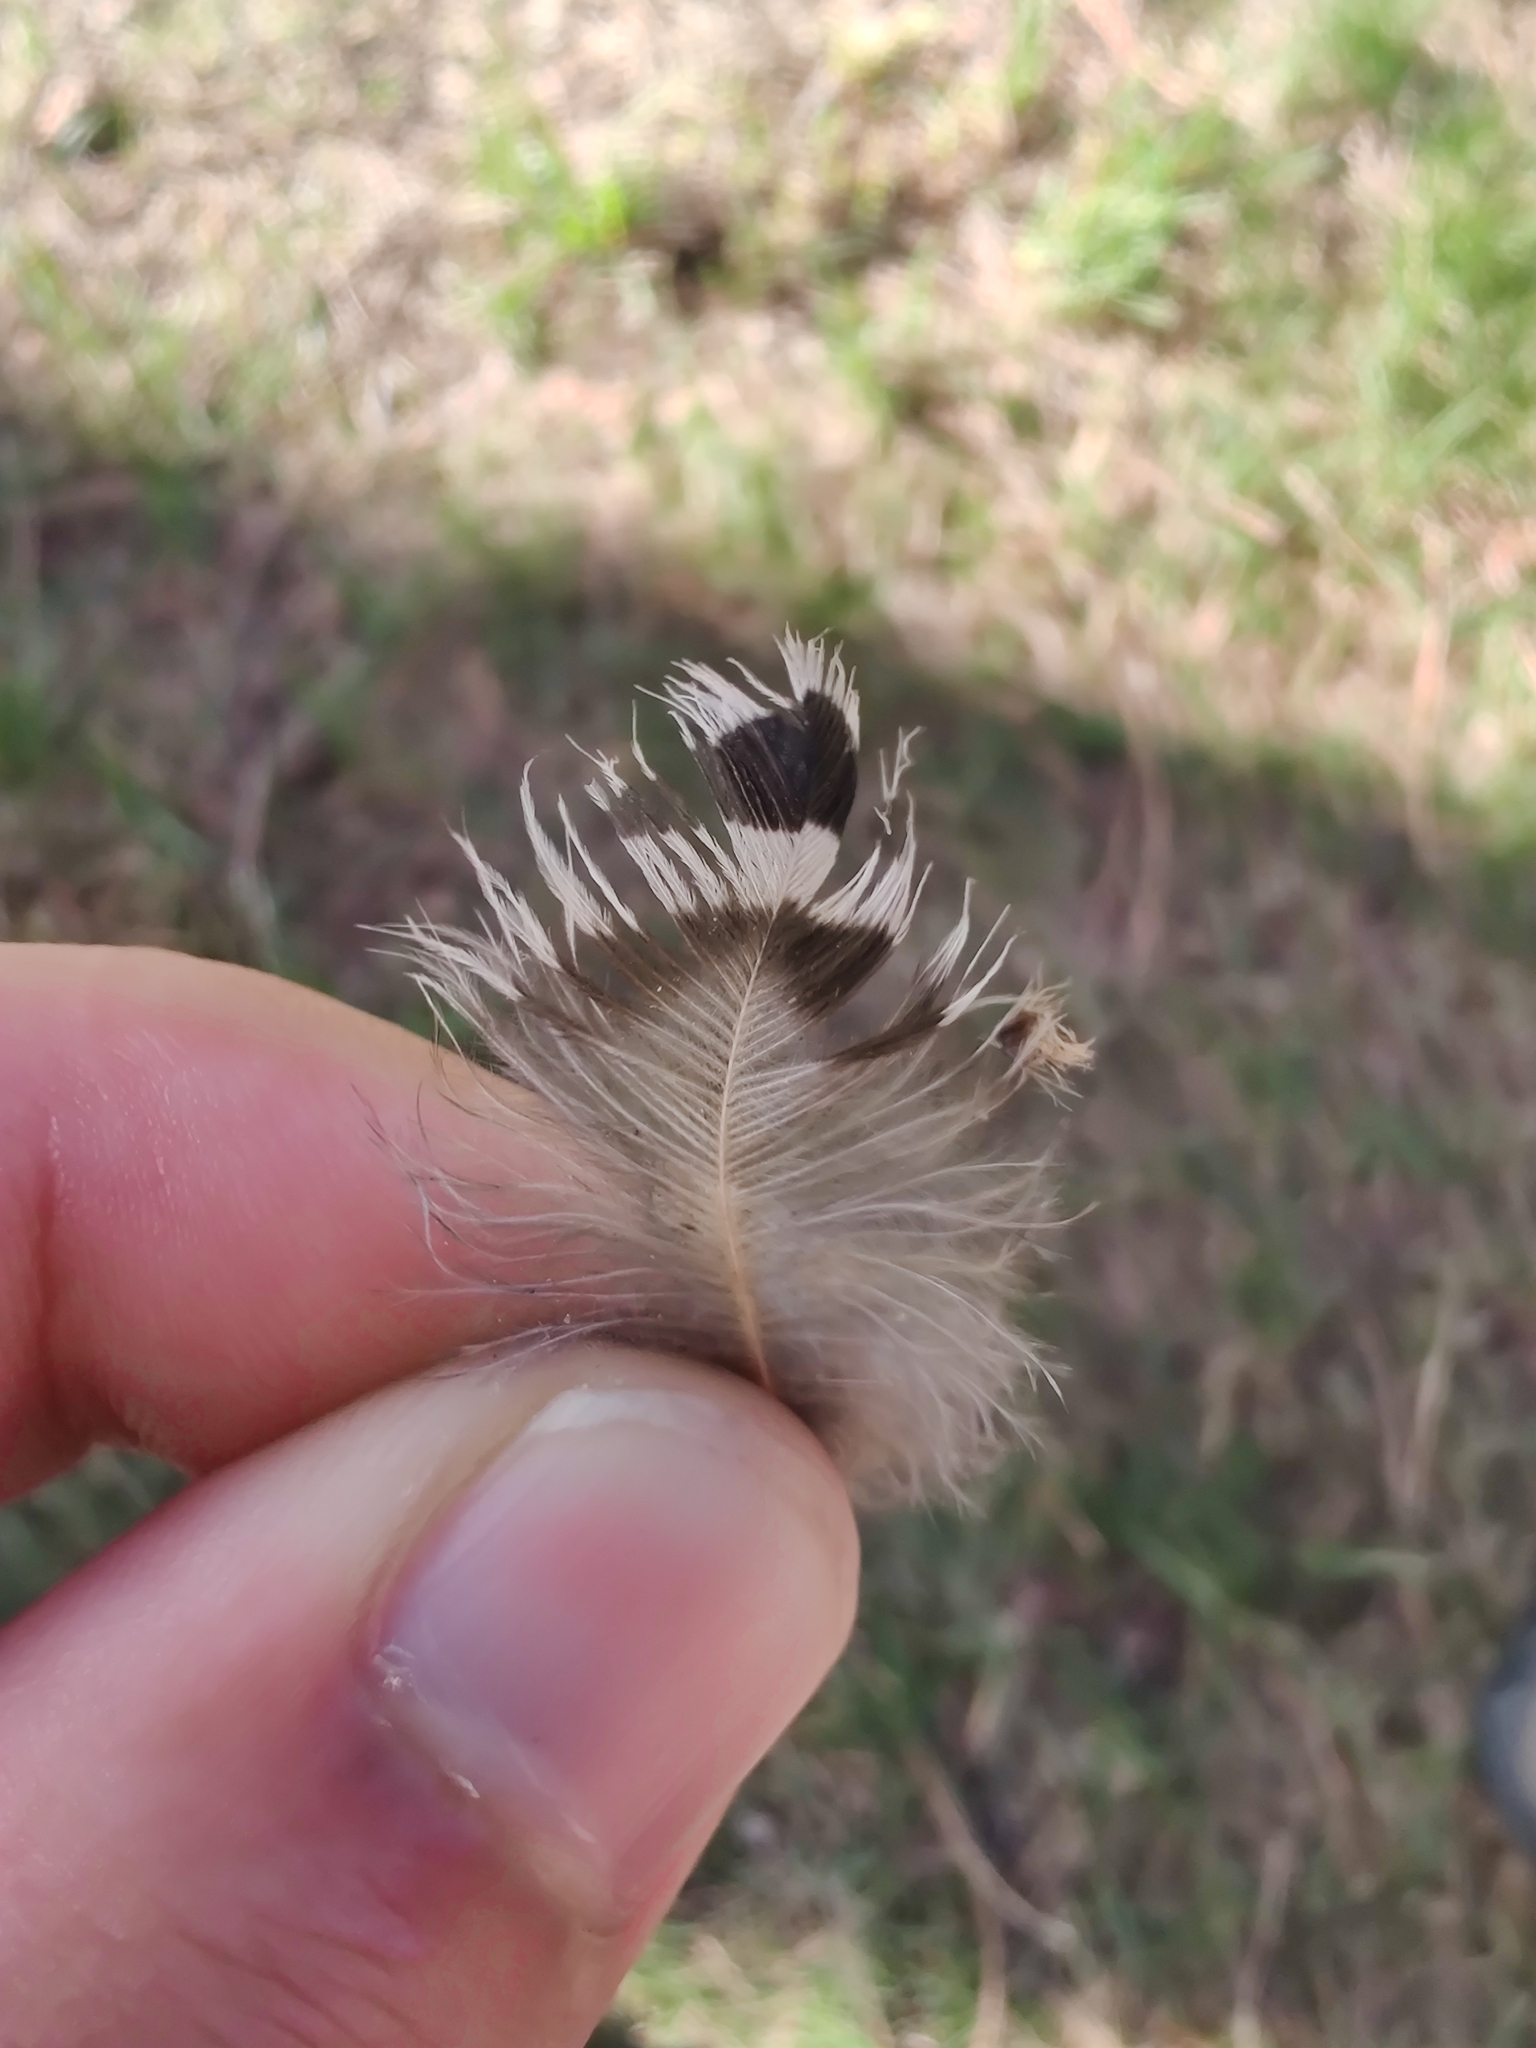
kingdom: Animalia
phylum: Chordata
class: Aves
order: Piciformes
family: Picidae
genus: Colaptes
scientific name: Colaptes auratus
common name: Northern flicker
